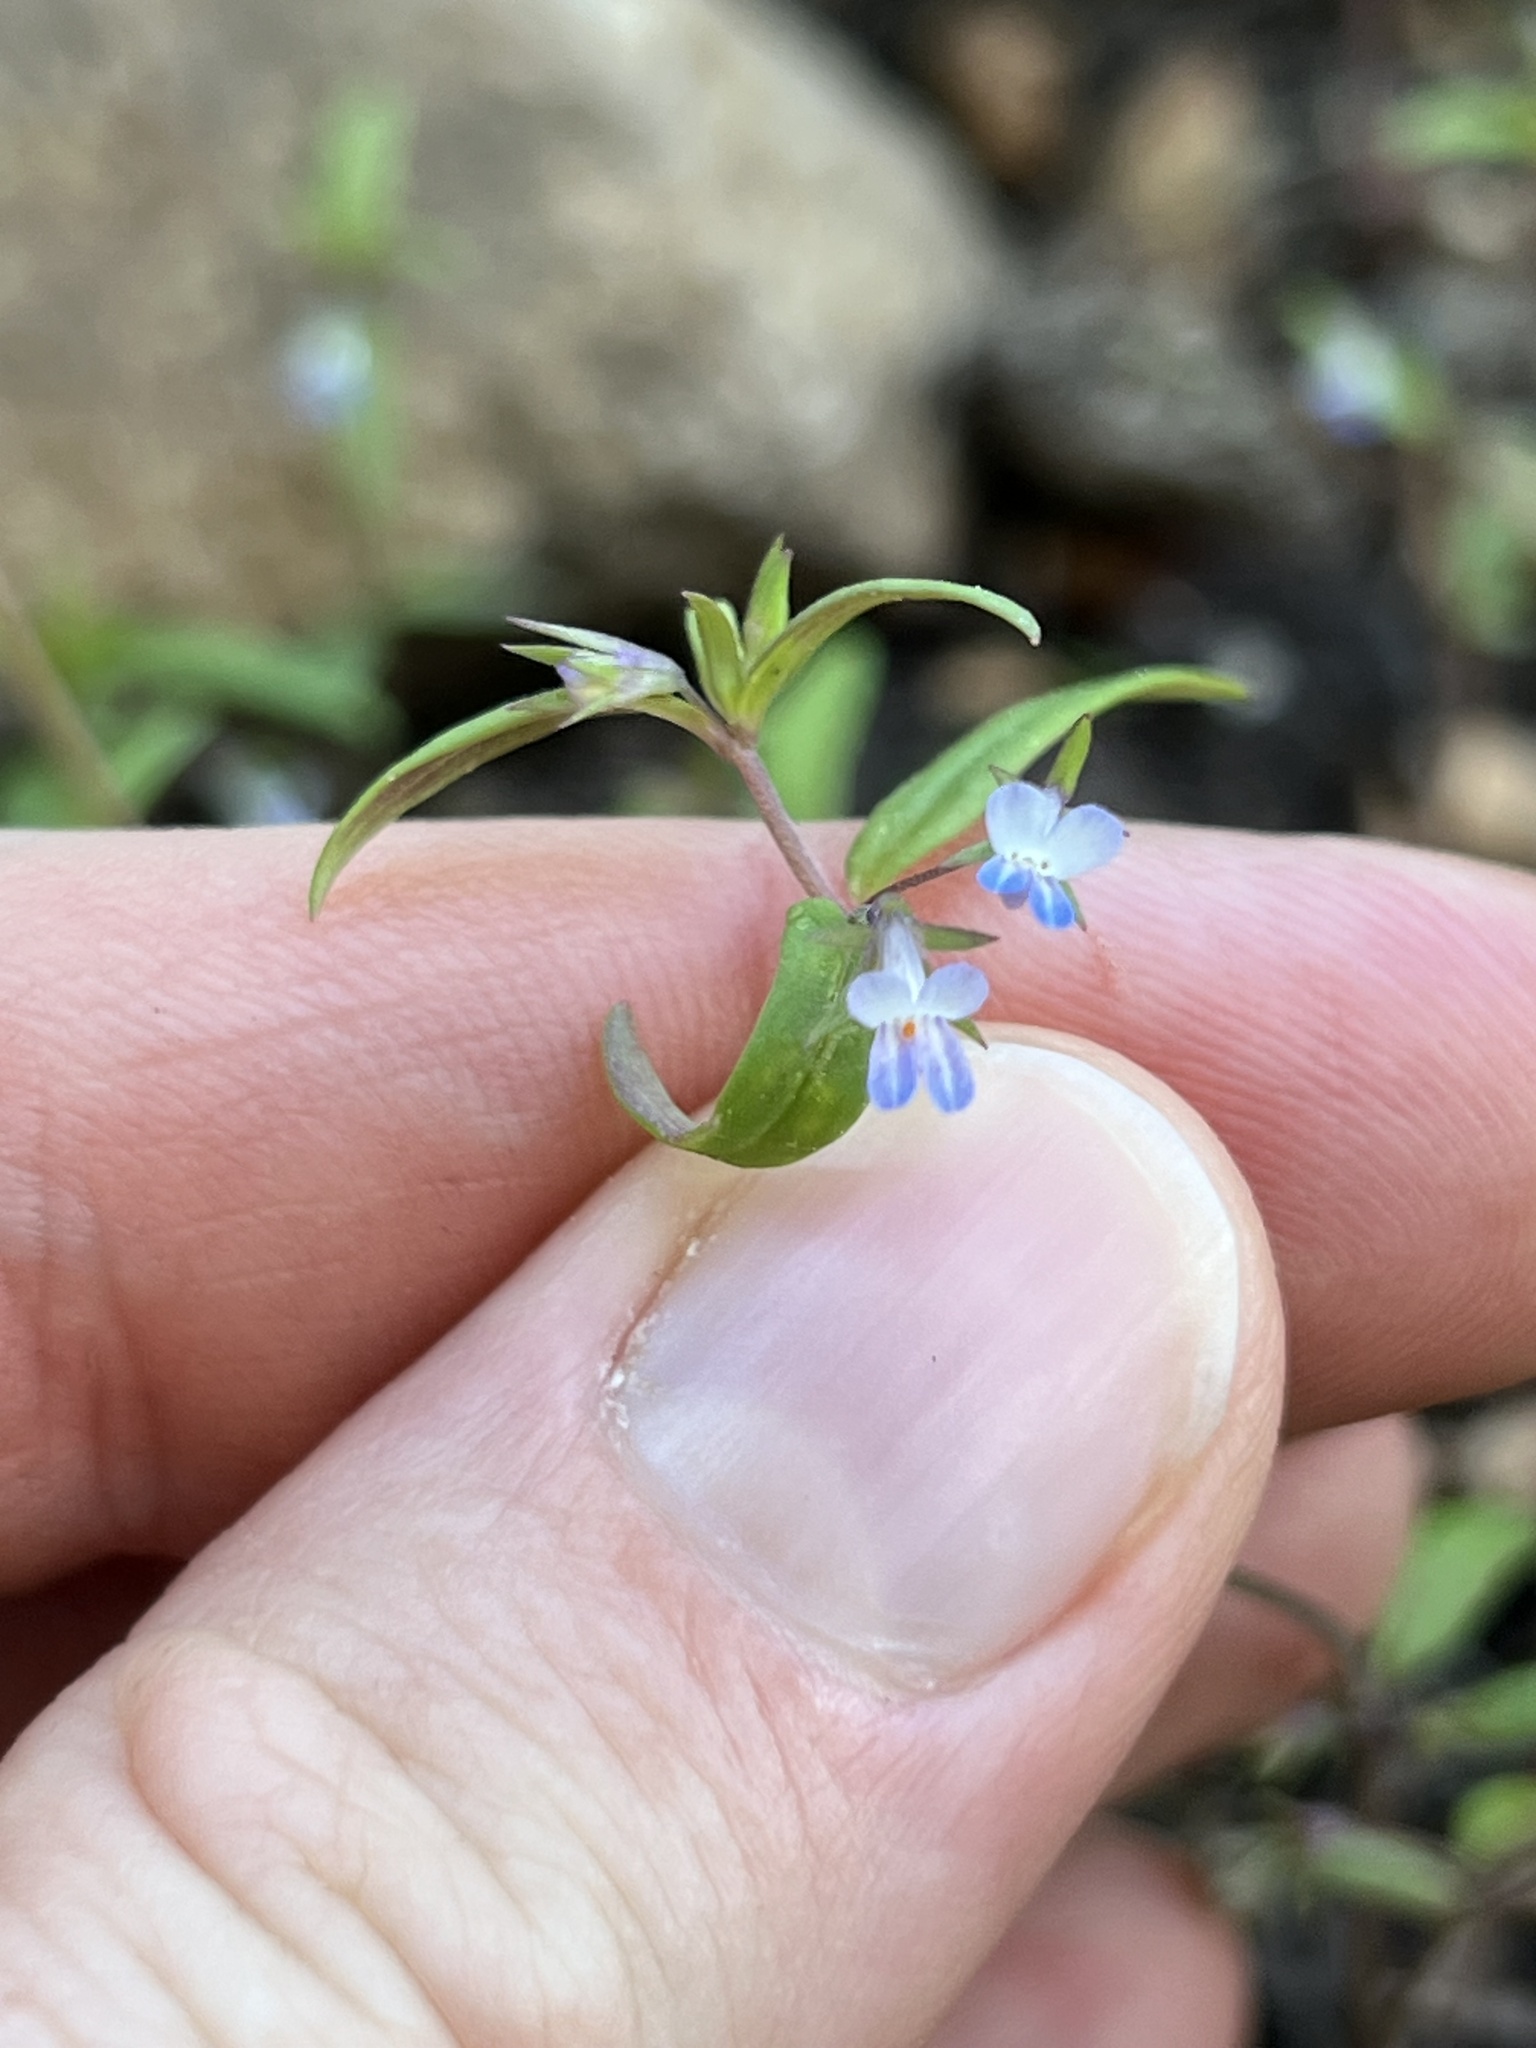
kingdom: Plantae
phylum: Tracheophyta
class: Magnoliopsida
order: Lamiales
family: Plantaginaceae
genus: Collinsia
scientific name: Collinsia parviflora
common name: Blue-lips
